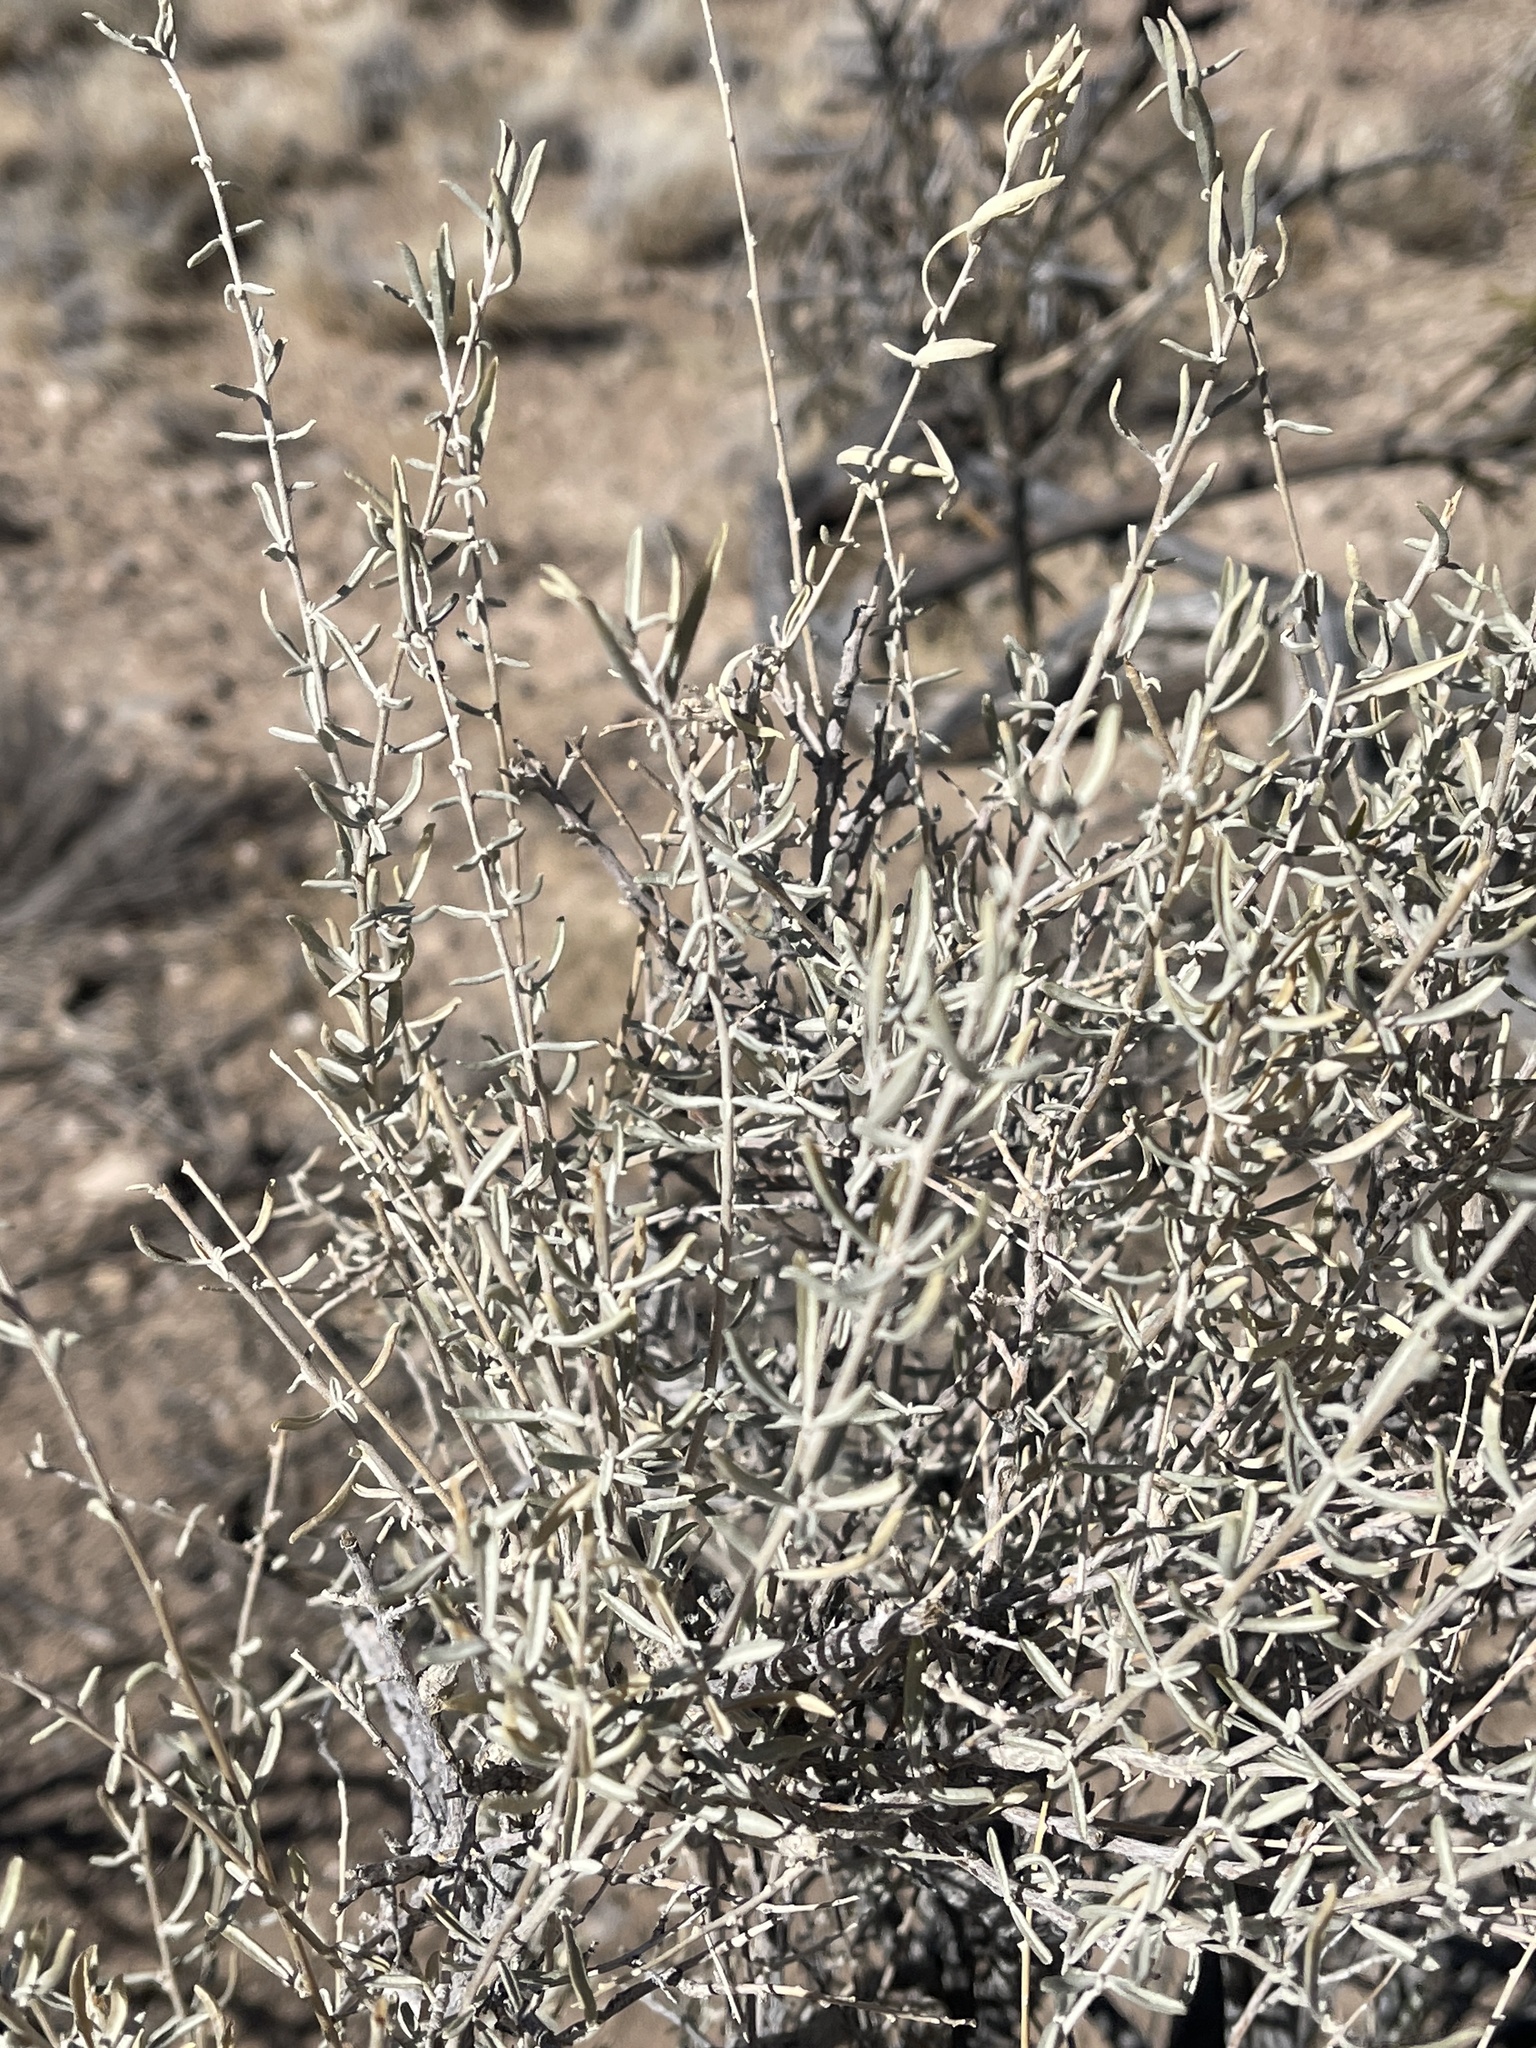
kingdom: Plantae
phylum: Tracheophyta
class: Magnoliopsida
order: Caryophyllales
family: Amaranthaceae
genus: Atriplex
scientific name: Atriplex canescens
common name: Four-wing saltbush
